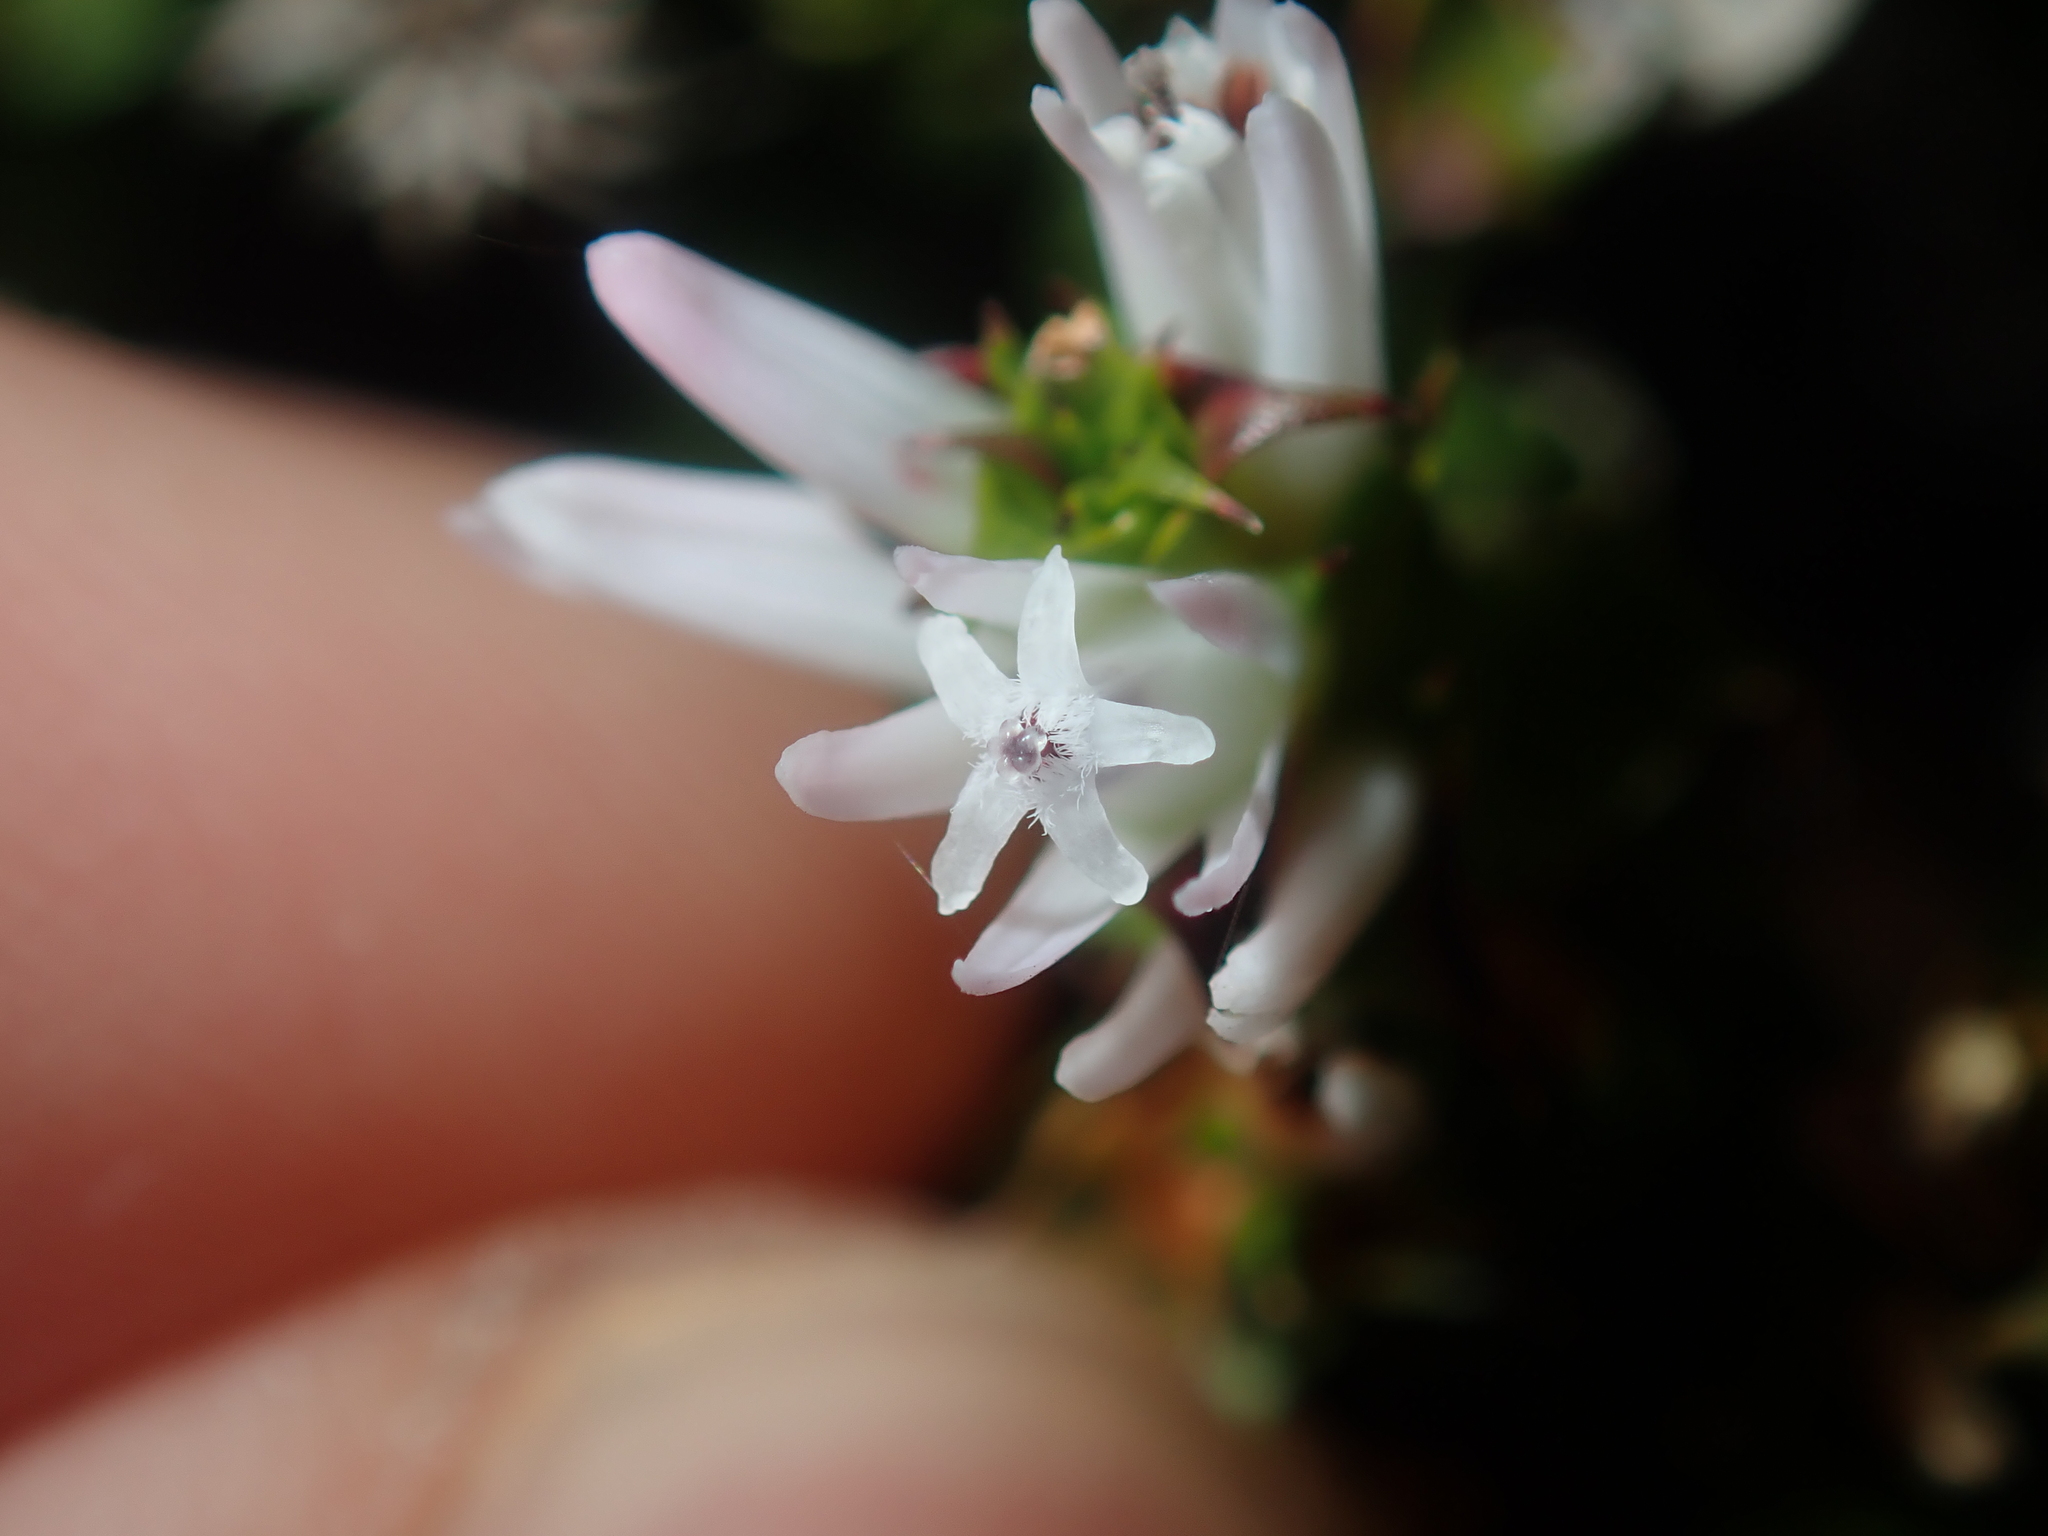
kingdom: Plantae
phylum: Tracheophyta
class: Magnoliopsida
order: Ericales
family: Ericaceae
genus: Andersonia
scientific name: Andersonia lehmanniana
